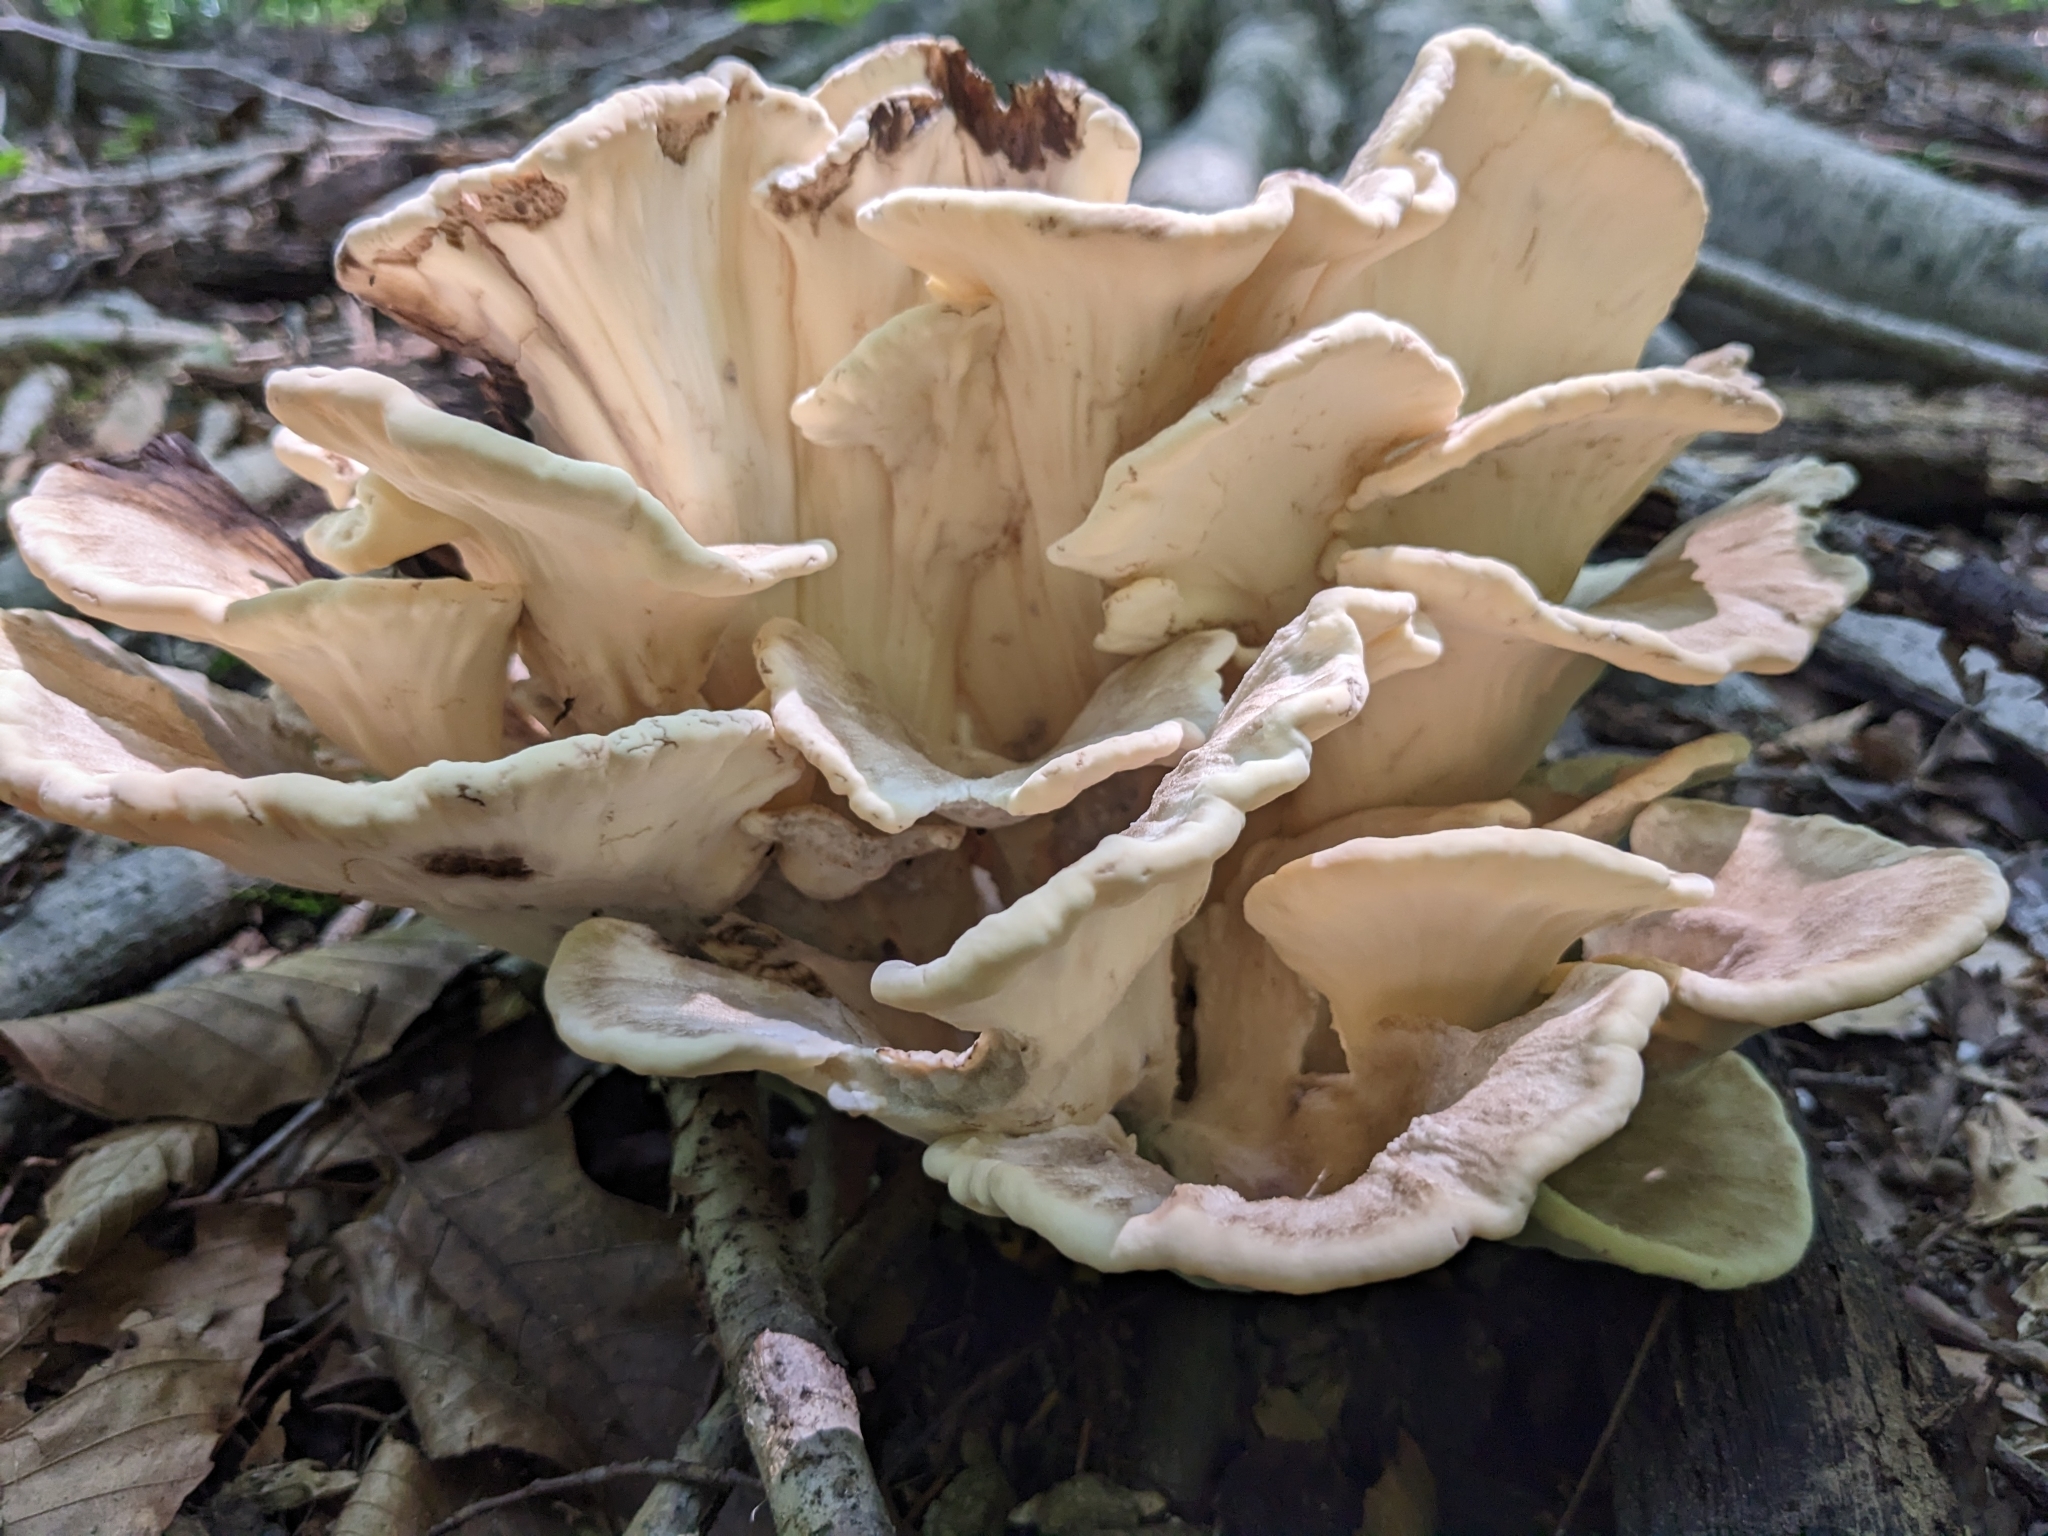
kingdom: Fungi
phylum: Basidiomycota
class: Agaricomycetes
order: Polyporales
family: Meripilaceae
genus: Meripilus
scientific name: Meripilus sumstinei
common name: Black-staining polypore
